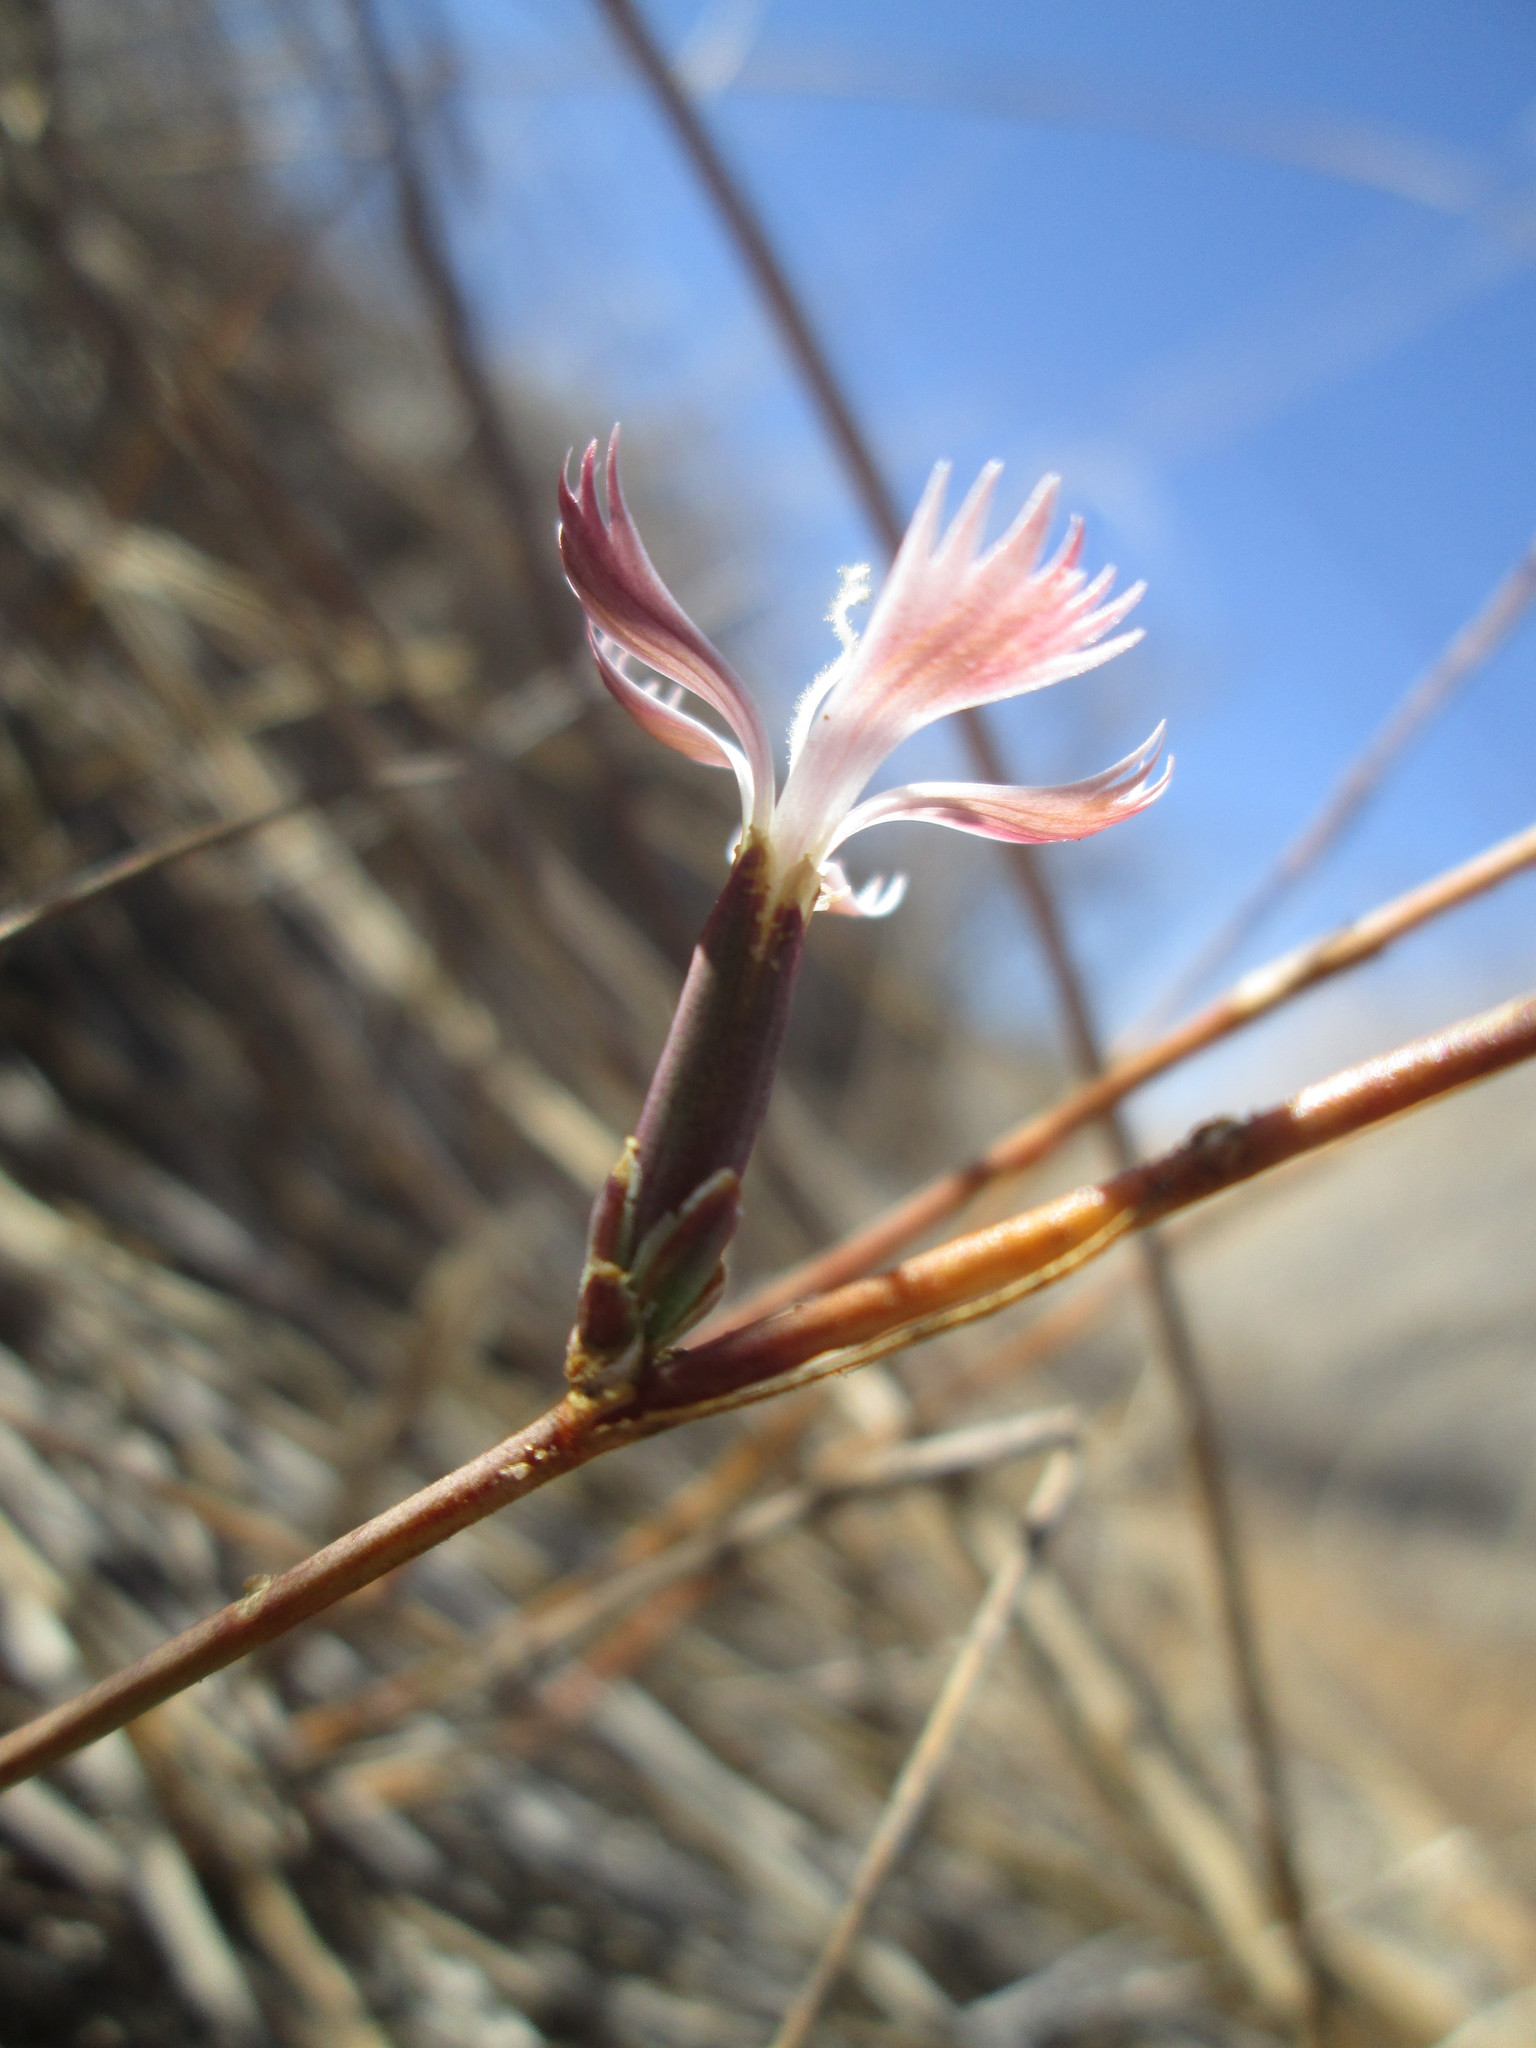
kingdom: Plantae
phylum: Tracheophyta
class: Magnoliopsida
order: Caryophyllales
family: Caryophyllaceae
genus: Dianthus
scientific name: Dianthus namaensis
